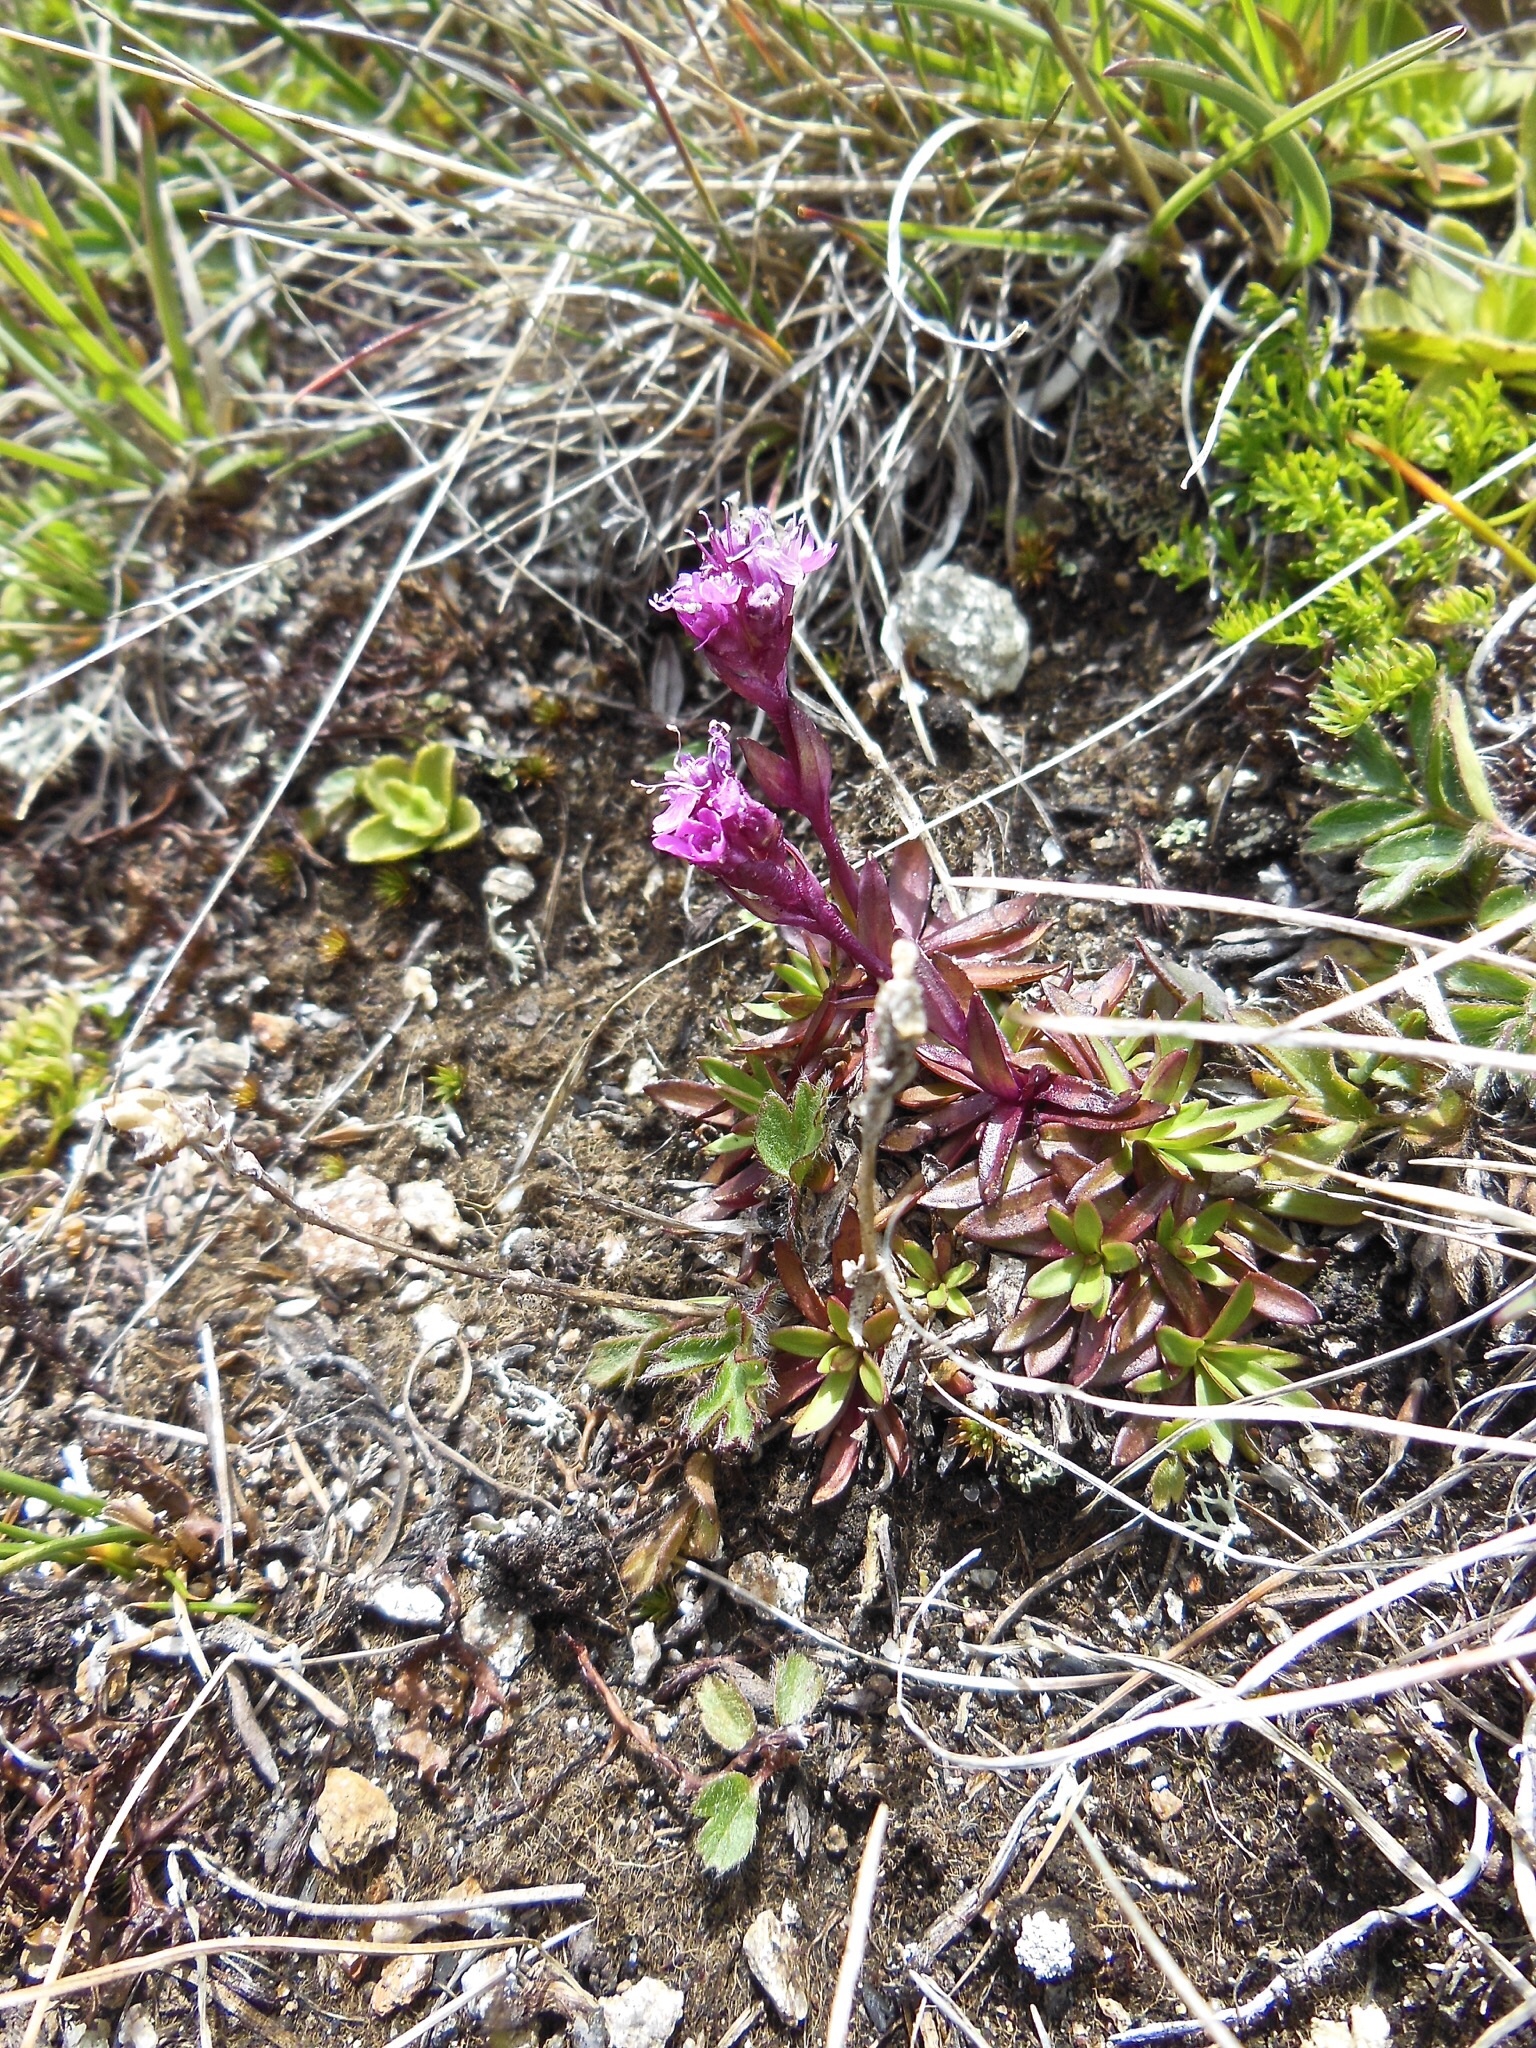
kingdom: Plantae
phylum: Tracheophyta
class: Magnoliopsida
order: Caryophyllales
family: Caryophyllaceae
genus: Viscaria
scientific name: Viscaria alpina
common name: Alpine campion
